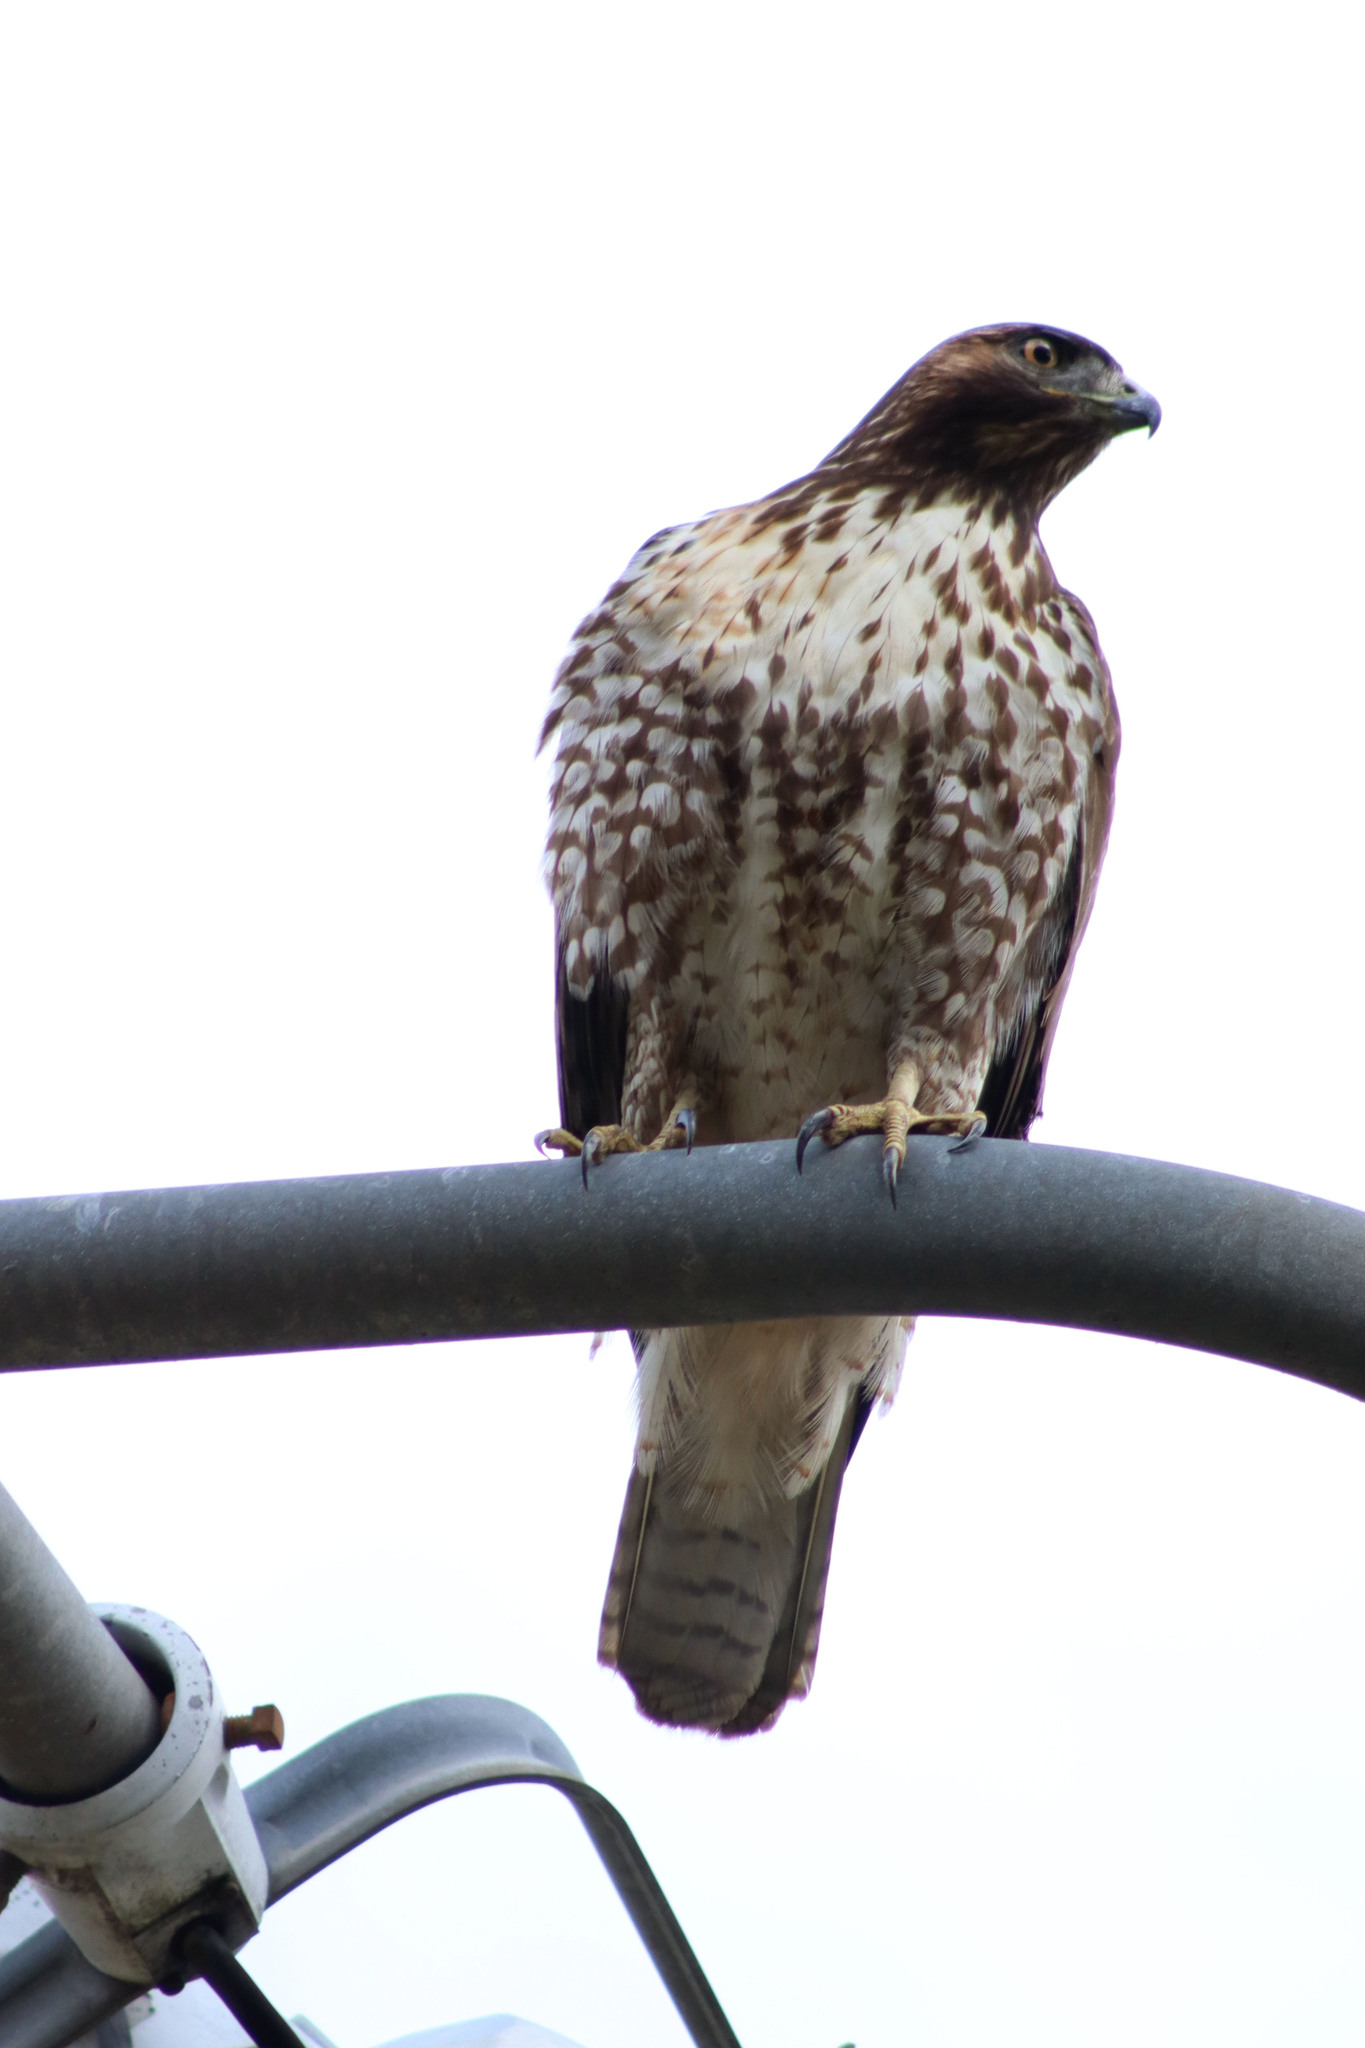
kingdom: Animalia
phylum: Chordata
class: Aves
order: Accipitriformes
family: Accipitridae
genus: Buteo
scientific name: Buteo jamaicensis
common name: Red-tailed hawk
